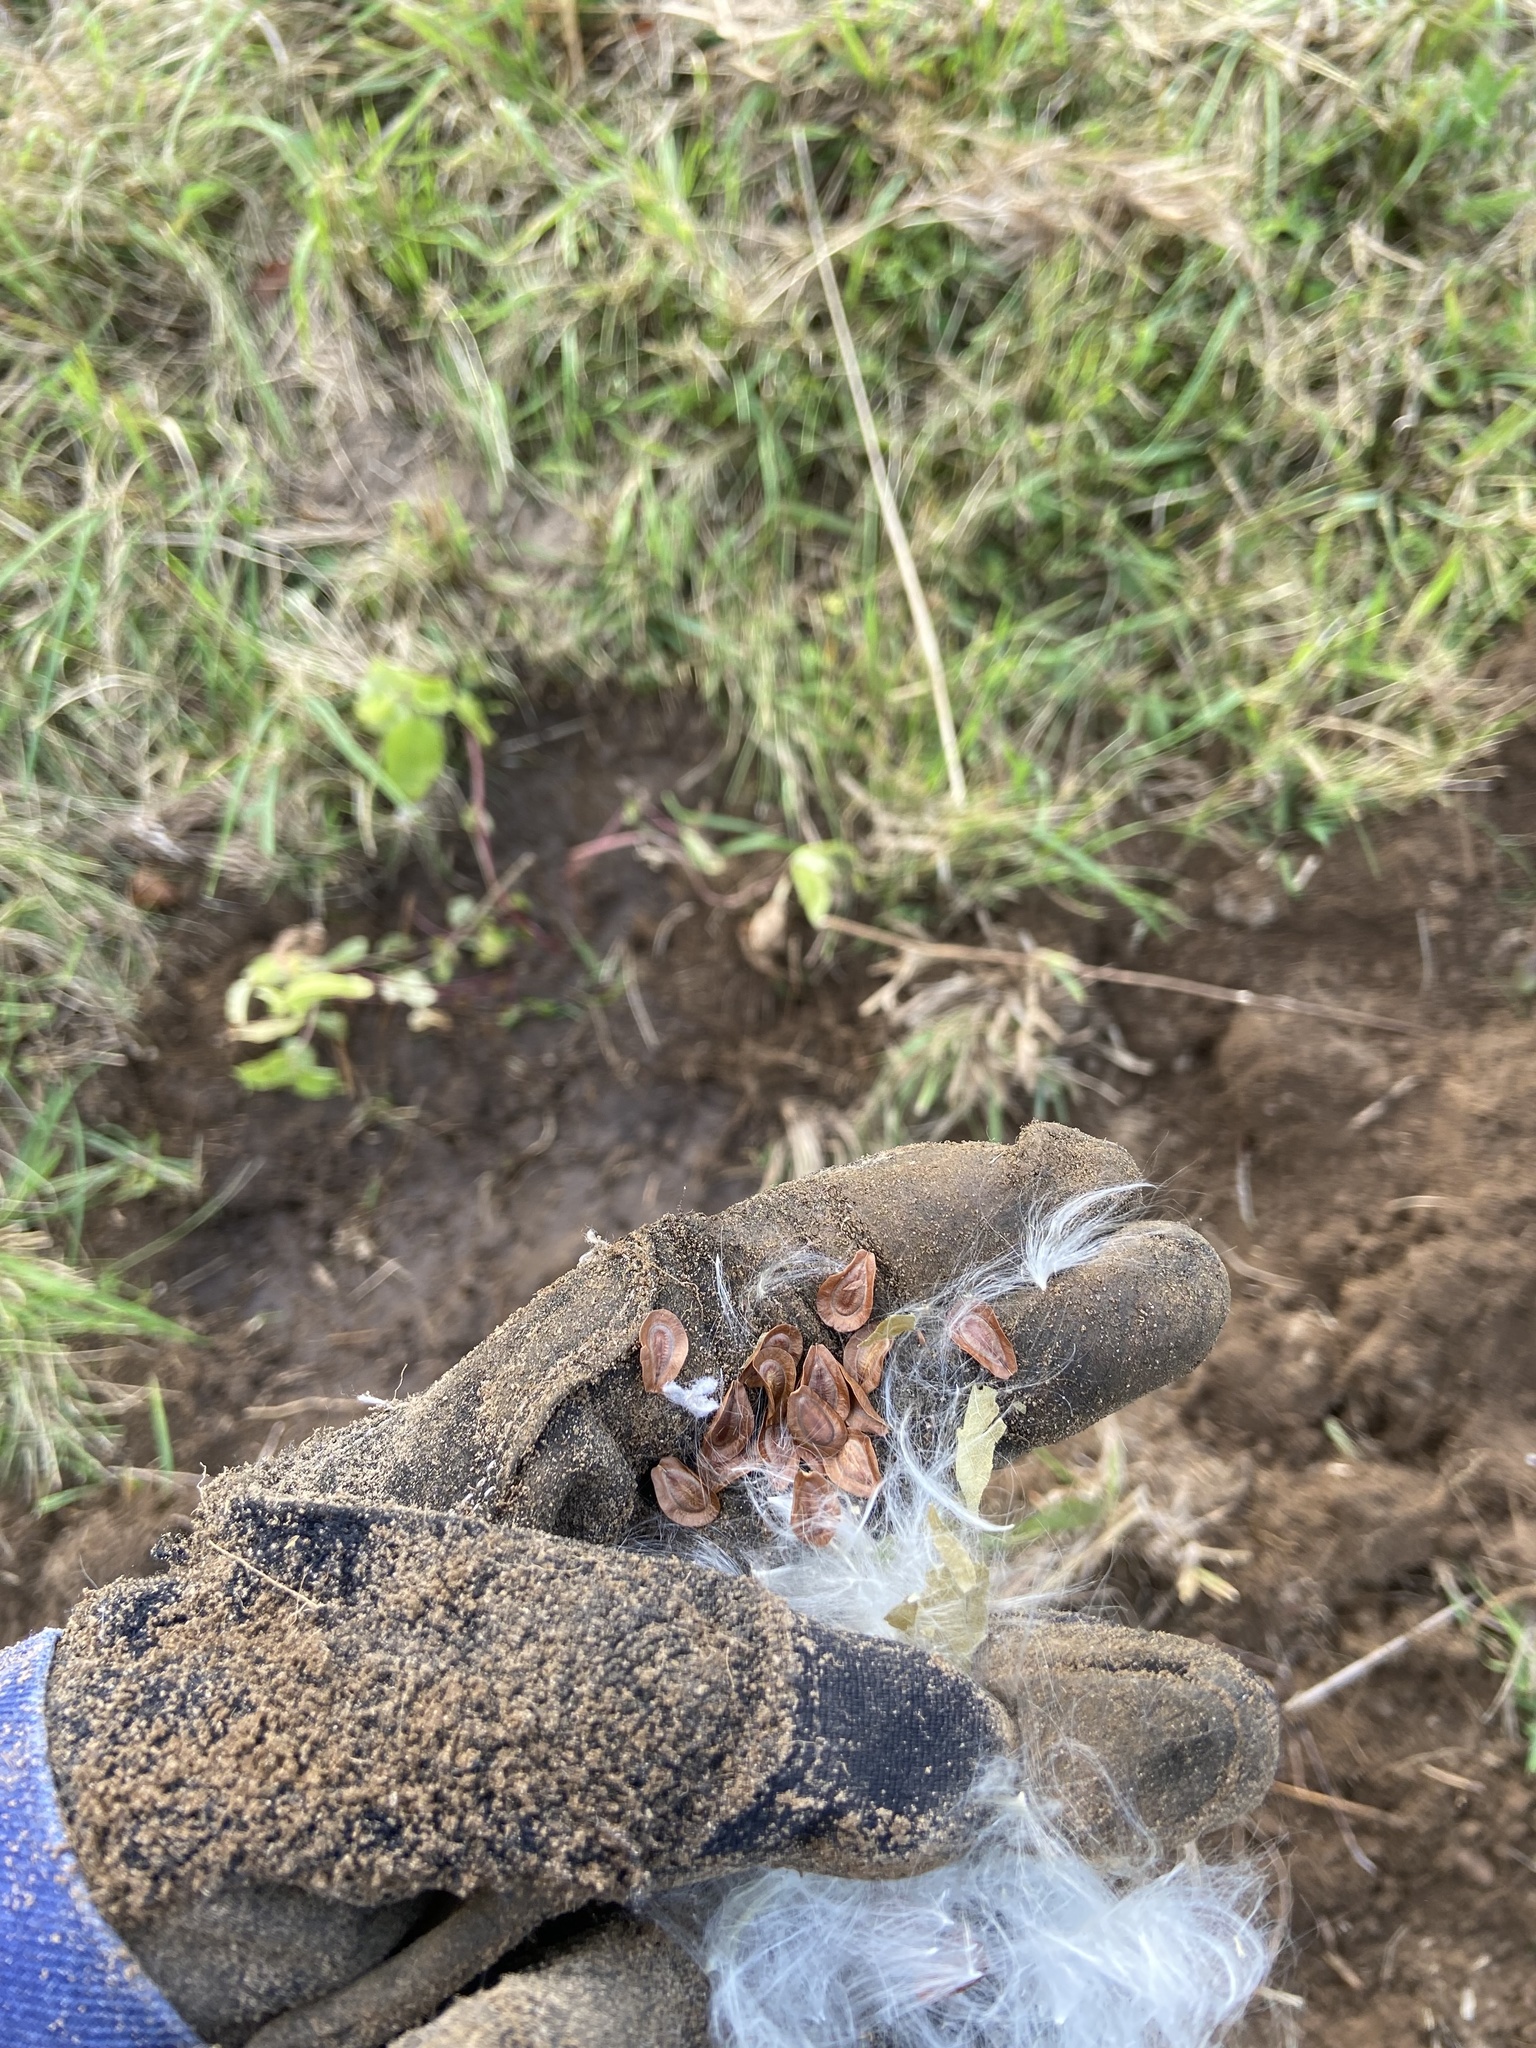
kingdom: Plantae
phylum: Tracheophyta
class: Magnoliopsida
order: Gentianales
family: Apocynaceae
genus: Asclepias
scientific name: Asclepias incarnata
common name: Swamp milkweed
